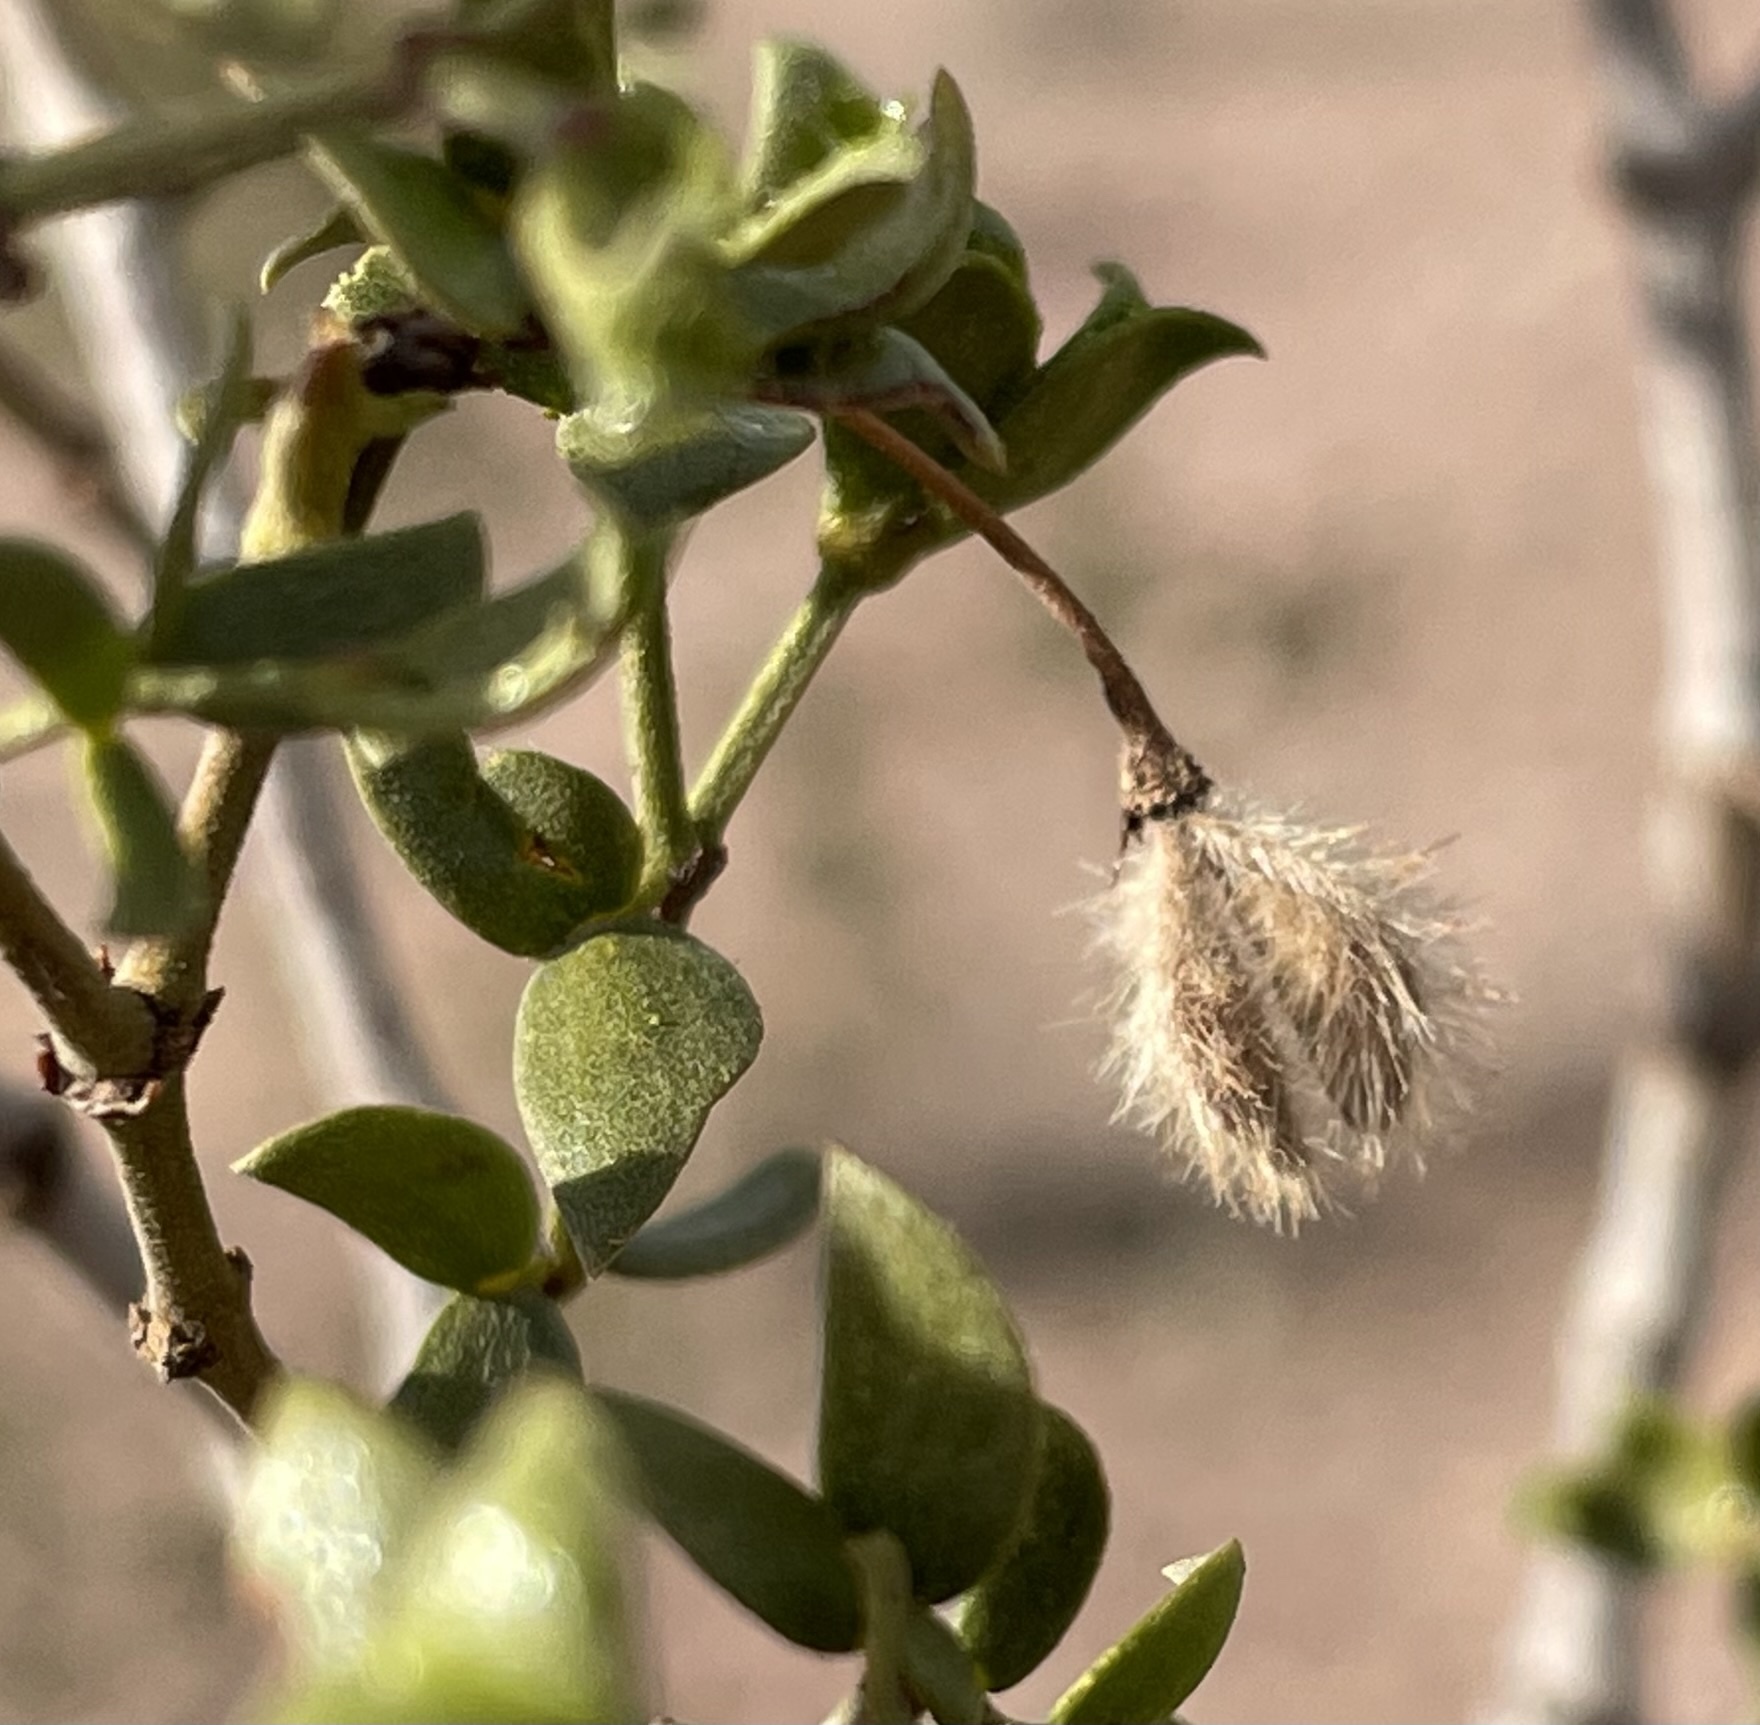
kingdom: Plantae
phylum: Tracheophyta
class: Magnoliopsida
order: Zygophyllales
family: Zygophyllaceae
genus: Larrea
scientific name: Larrea tridentata
